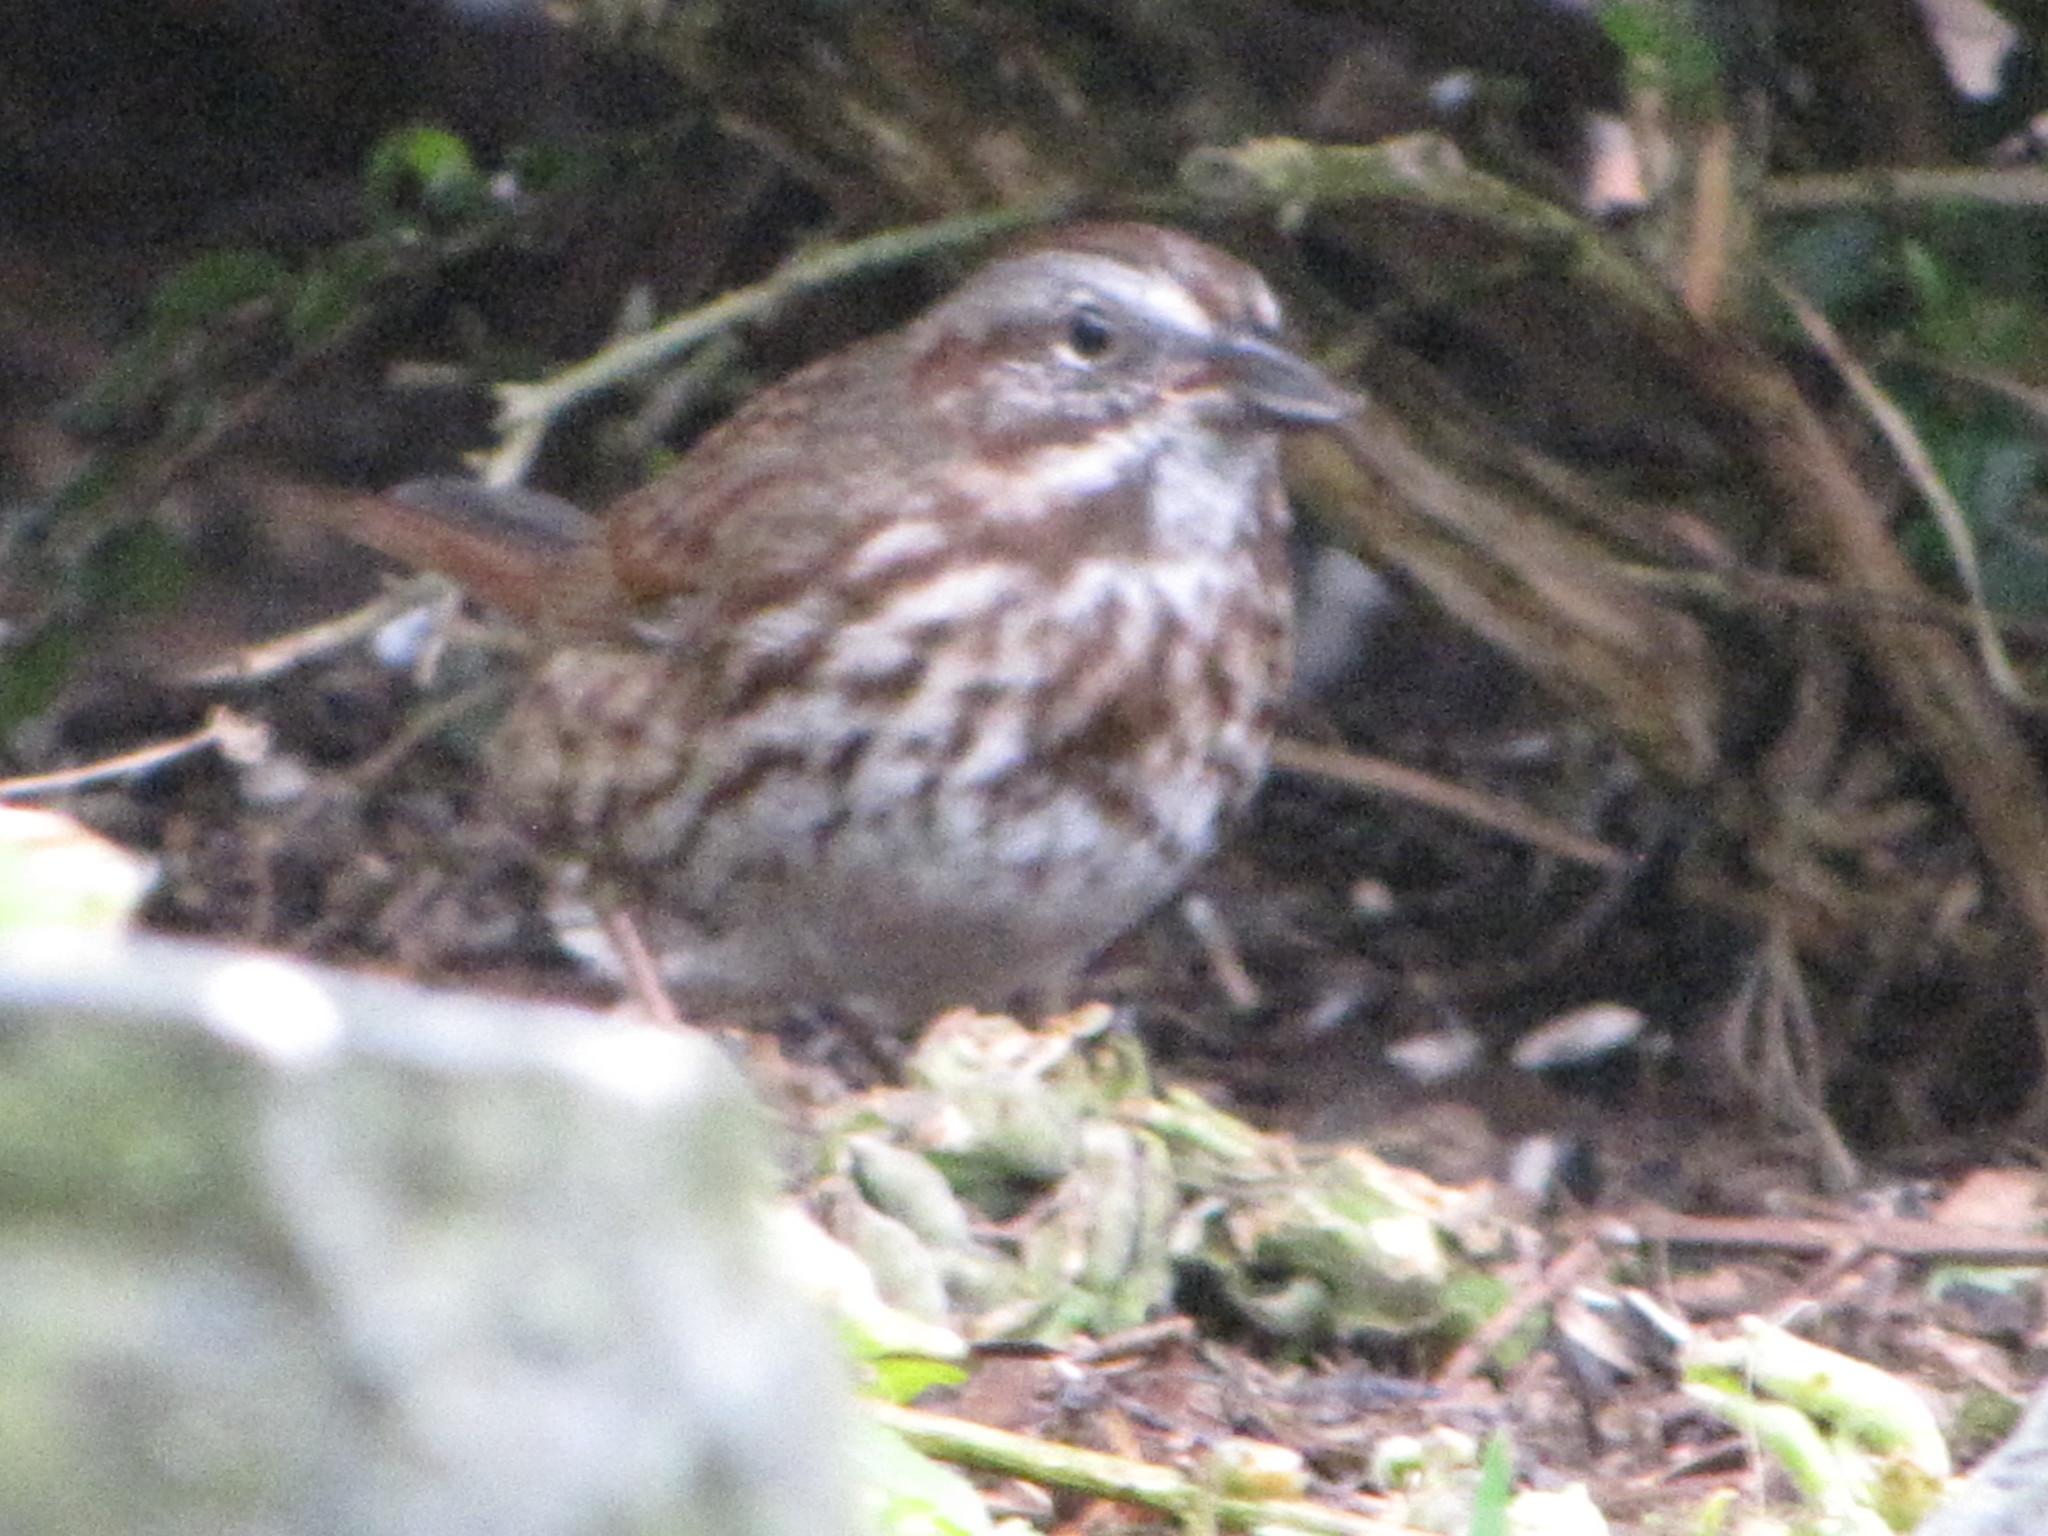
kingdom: Animalia
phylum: Chordata
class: Aves
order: Passeriformes
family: Passerellidae
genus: Melospiza
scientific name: Melospiza melodia
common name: Song sparrow
